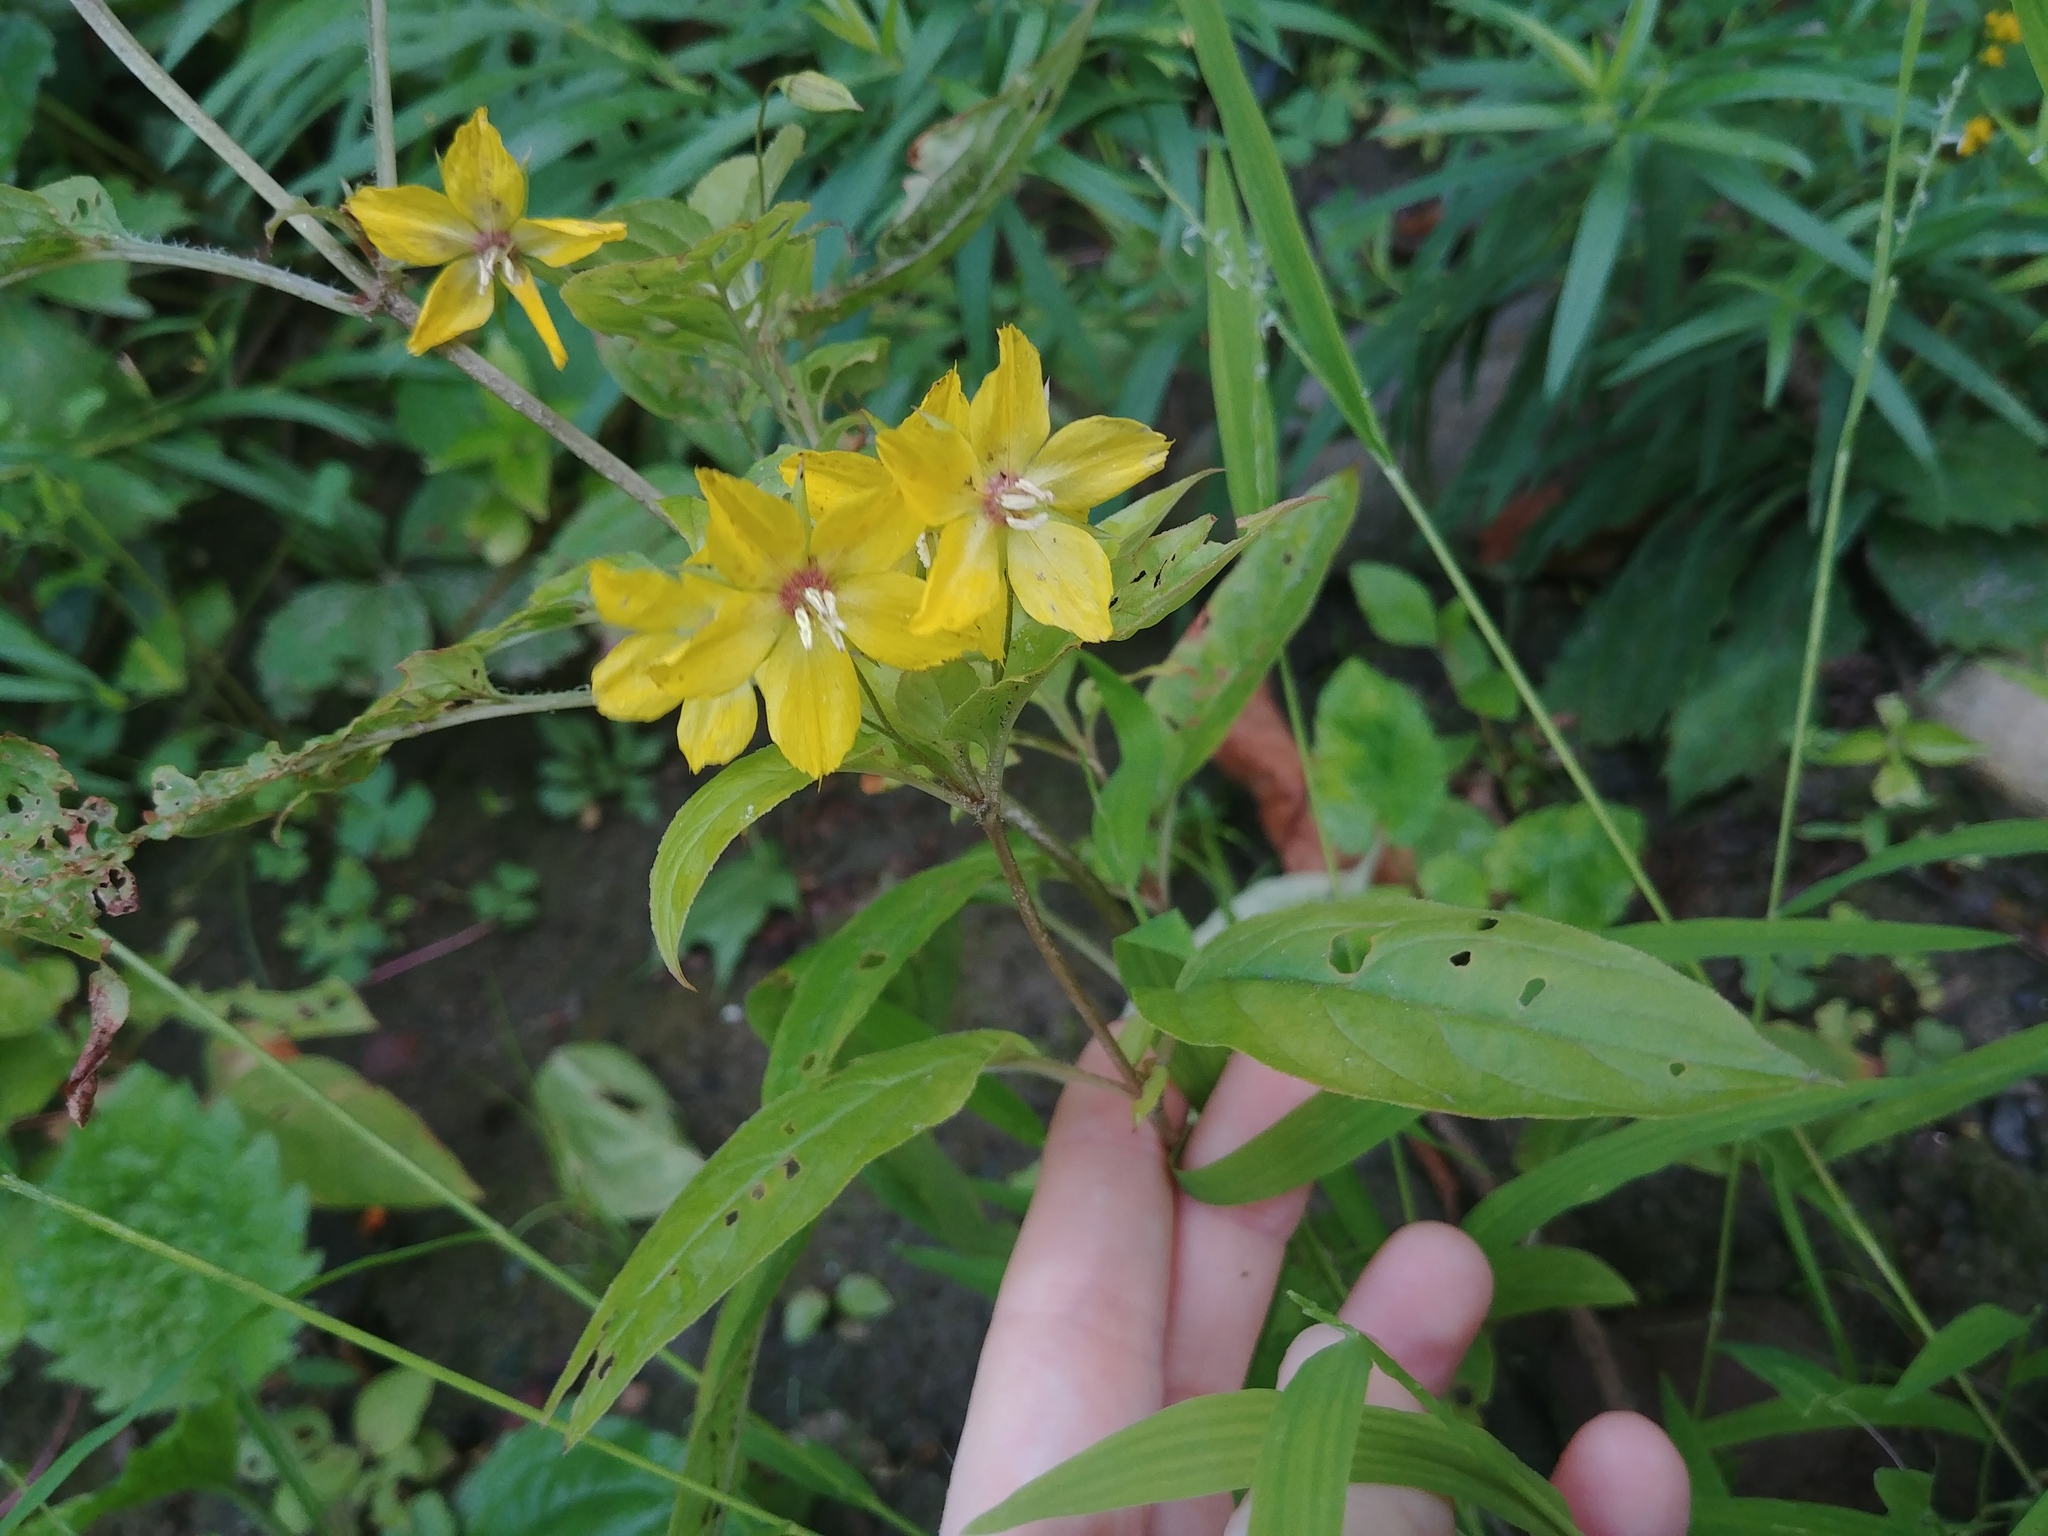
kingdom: Plantae
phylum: Tracheophyta
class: Magnoliopsida
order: Ericales
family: Primulaceae
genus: Lysimachia
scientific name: Lysimachia ciliata
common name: Fringed loosestrife
